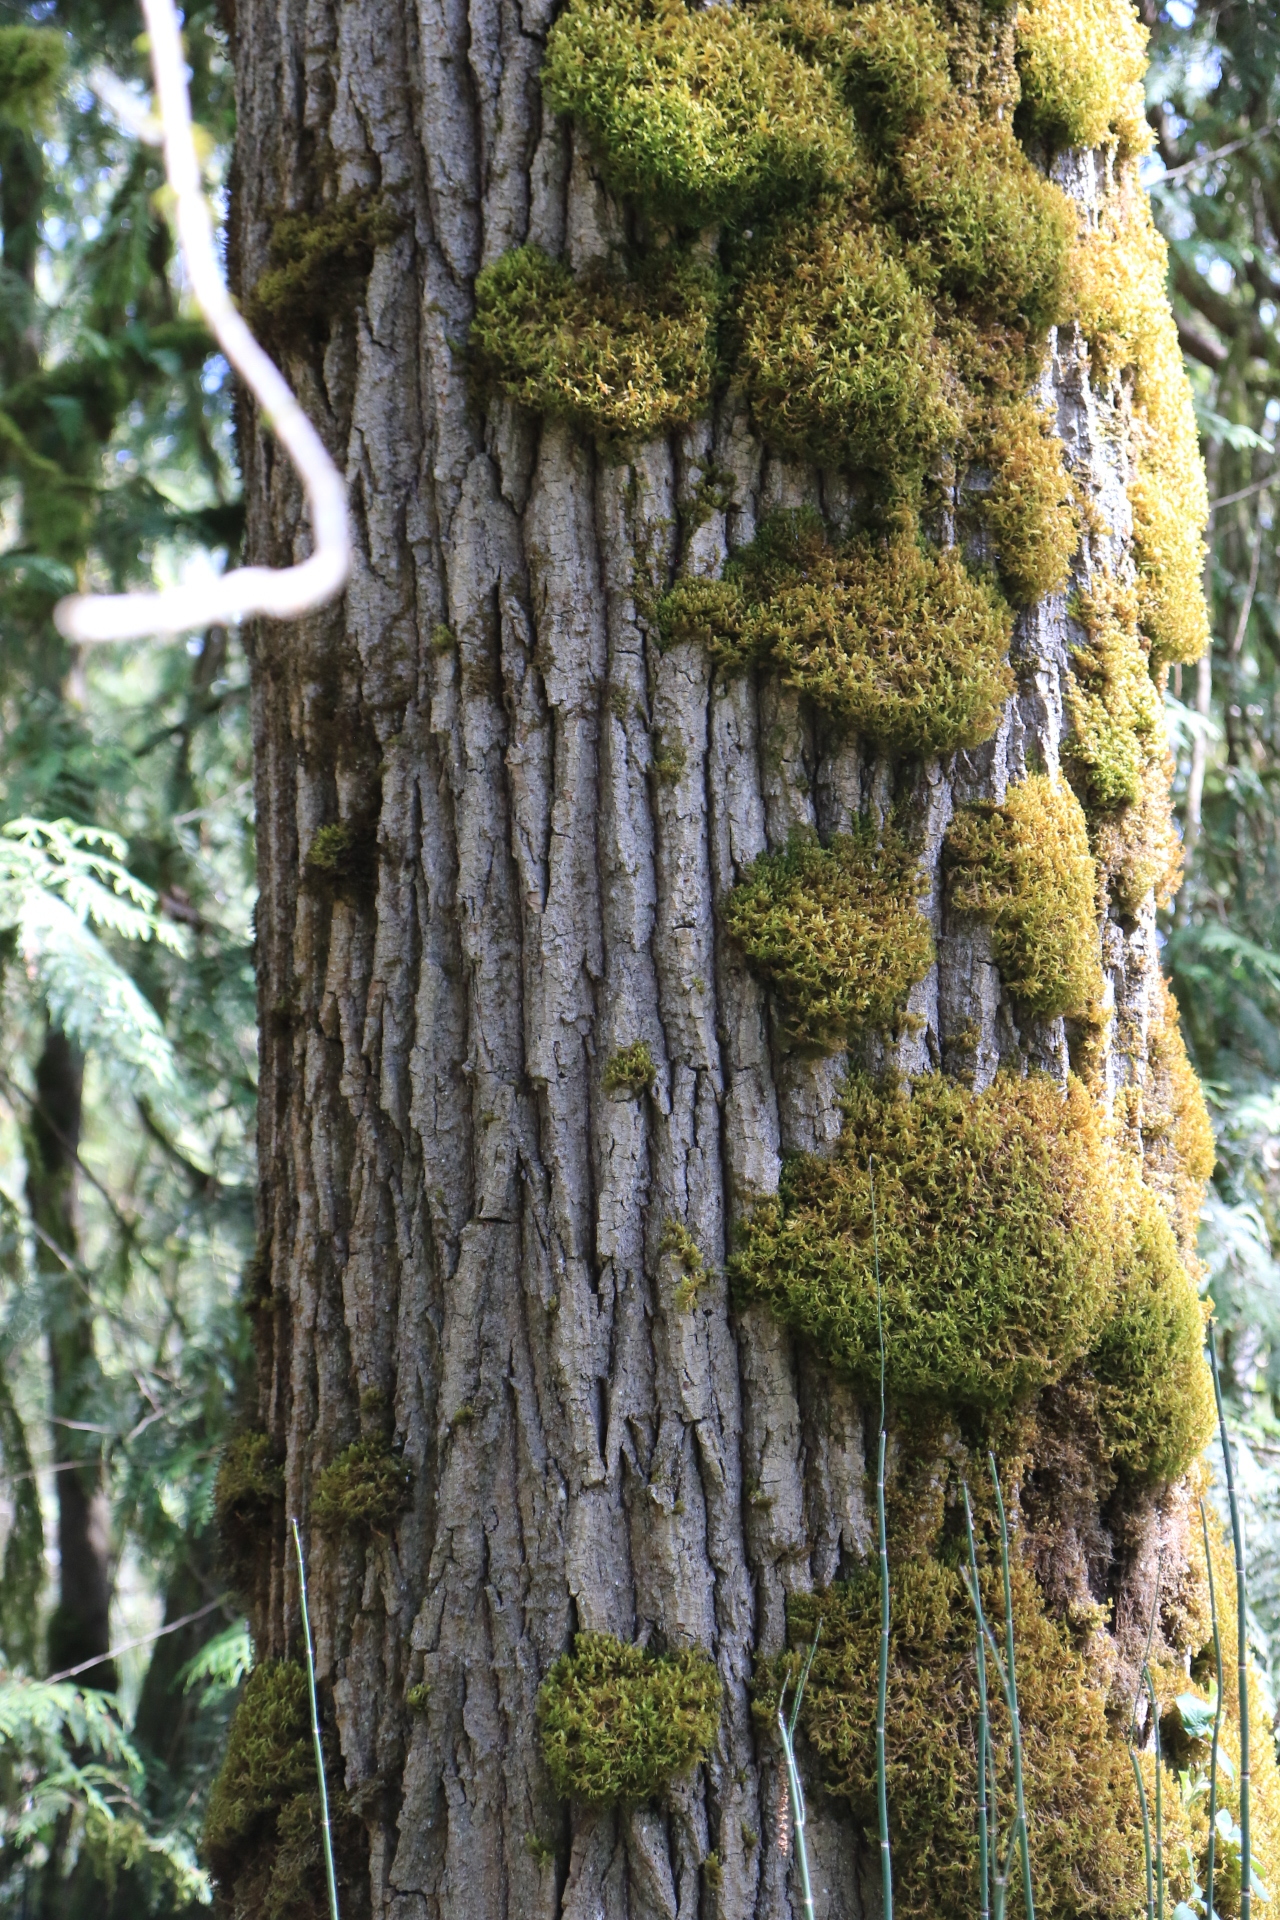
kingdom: Plantae
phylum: Tracheophyta
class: Magnoliopsida
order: Malpighiales
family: Salicaceae
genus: Populus
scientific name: Populus trichocarpa
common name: Black cottonwood
